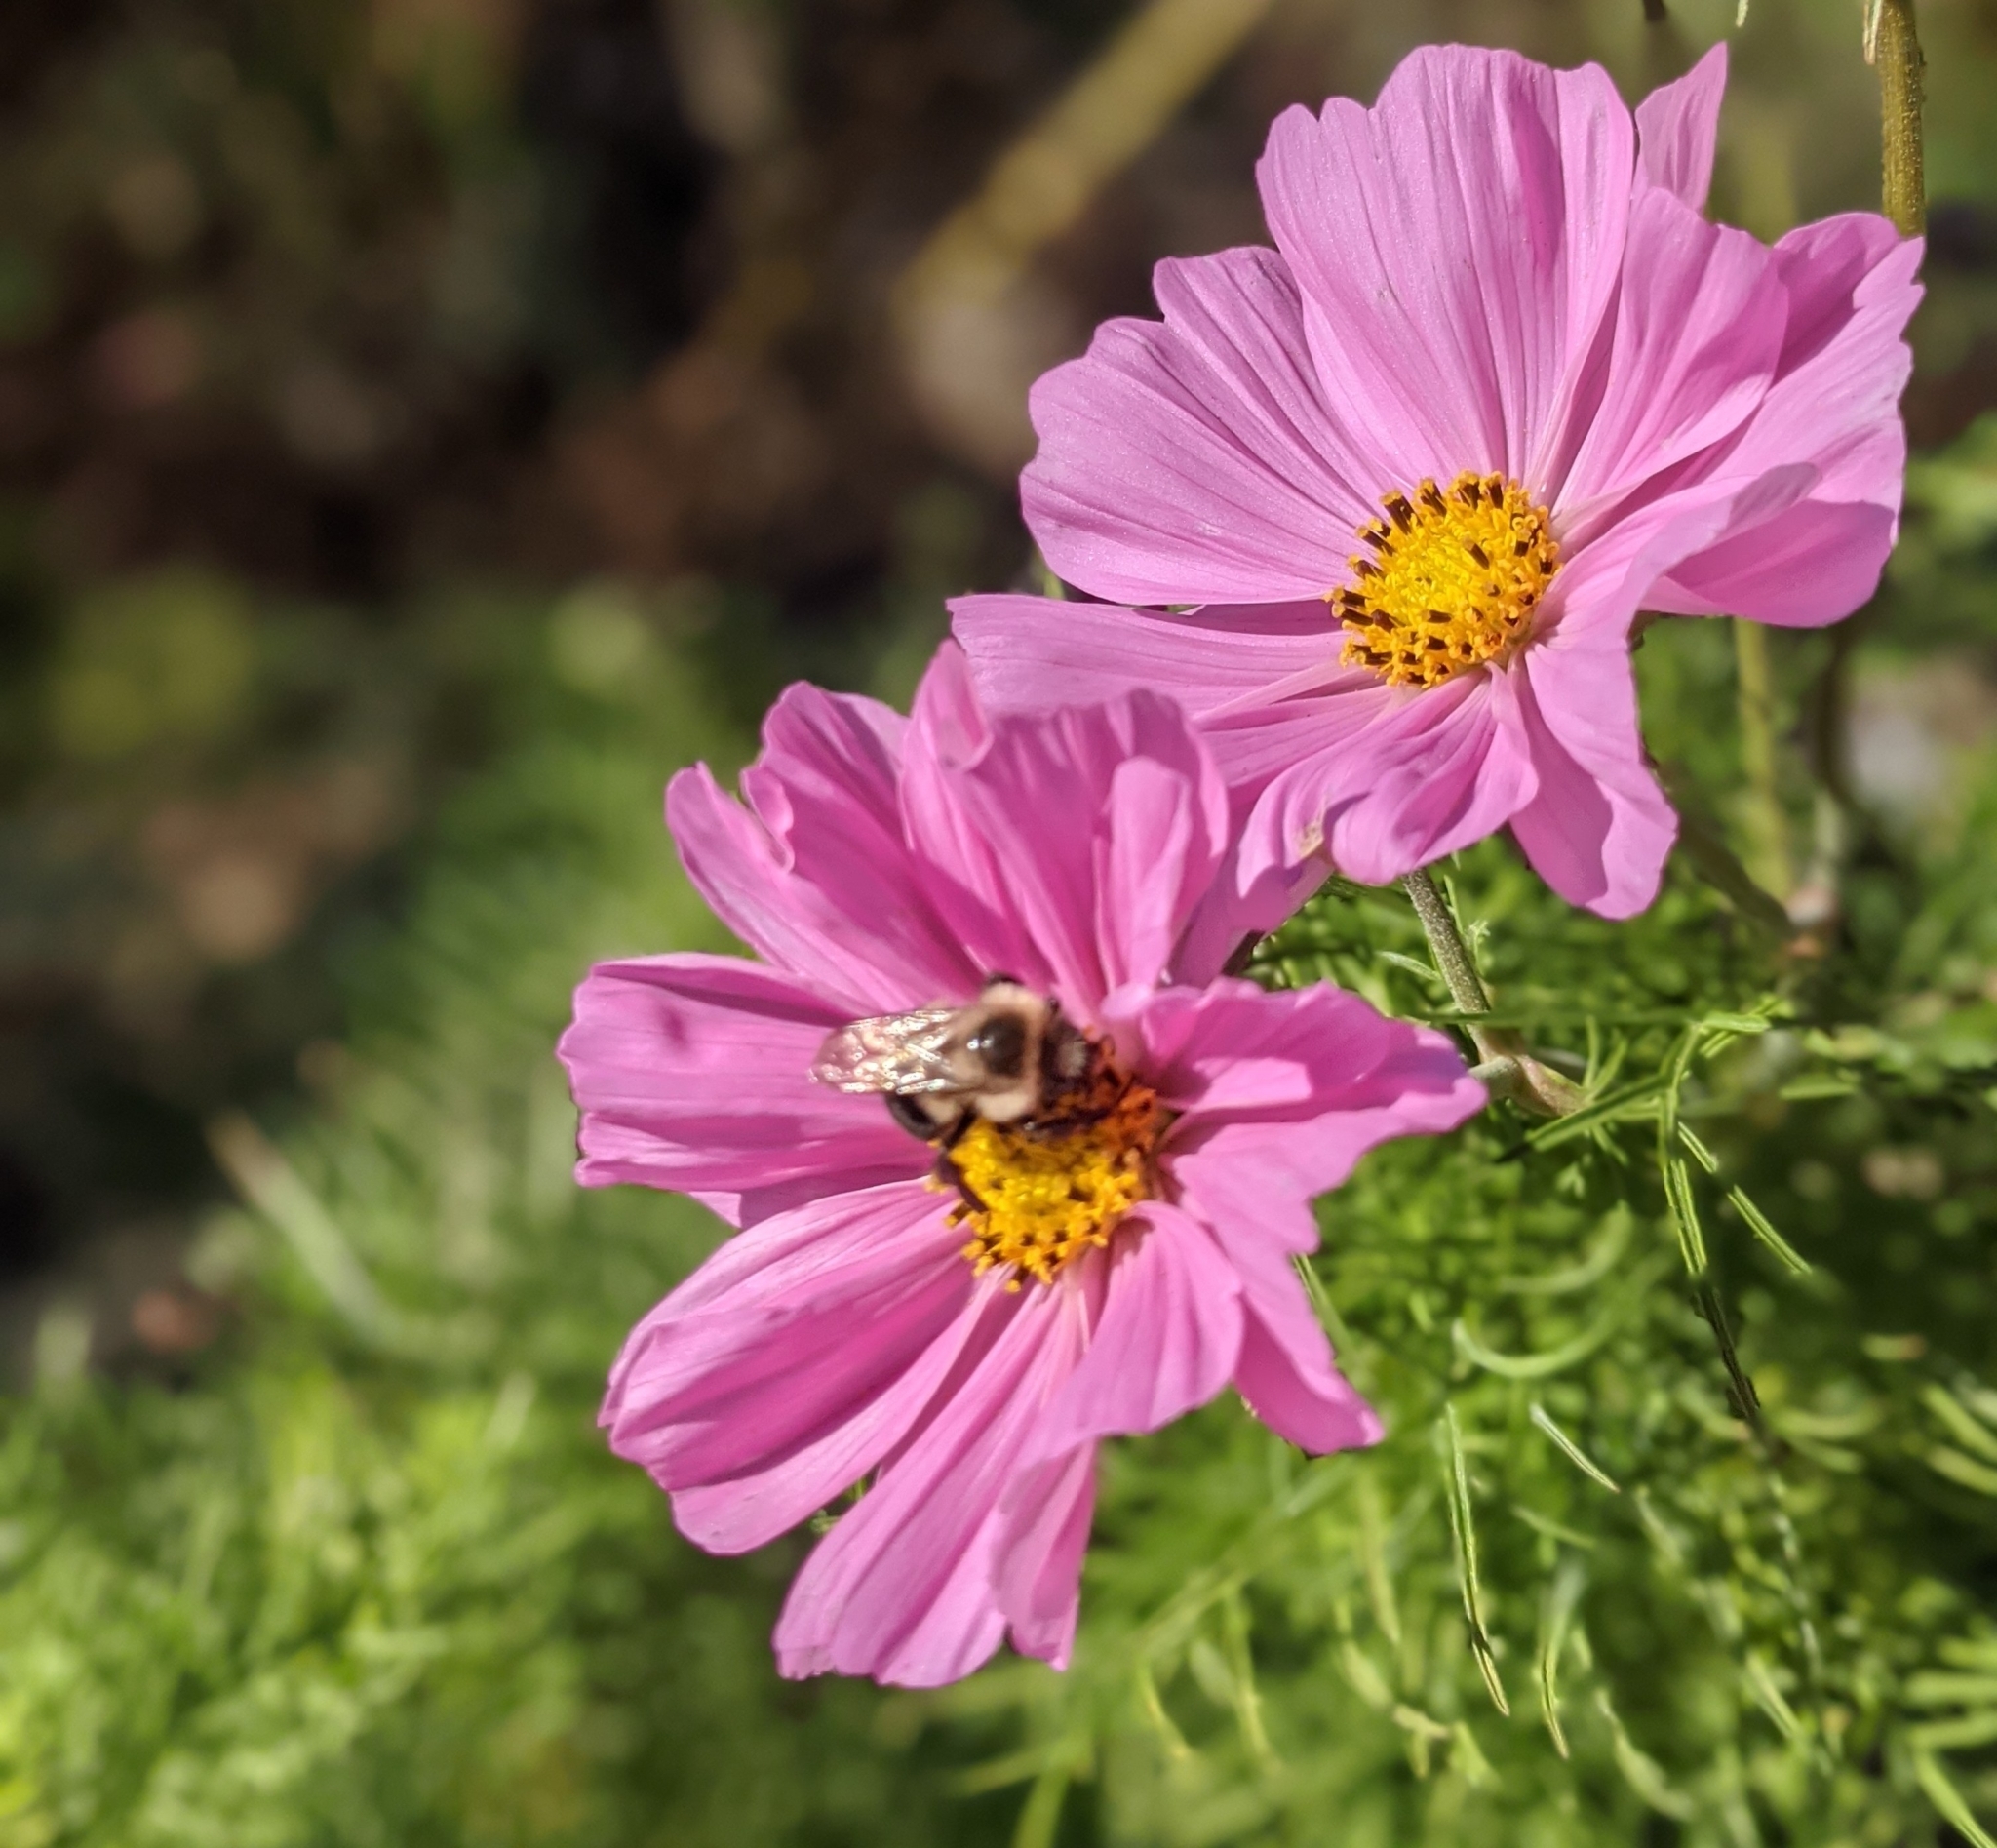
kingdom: Animalia
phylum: Arthropoda
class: Insecta
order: Hymenoptera
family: Apidae
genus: Bombus
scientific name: Bombus impatiens
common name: Common eastern bumble bee
